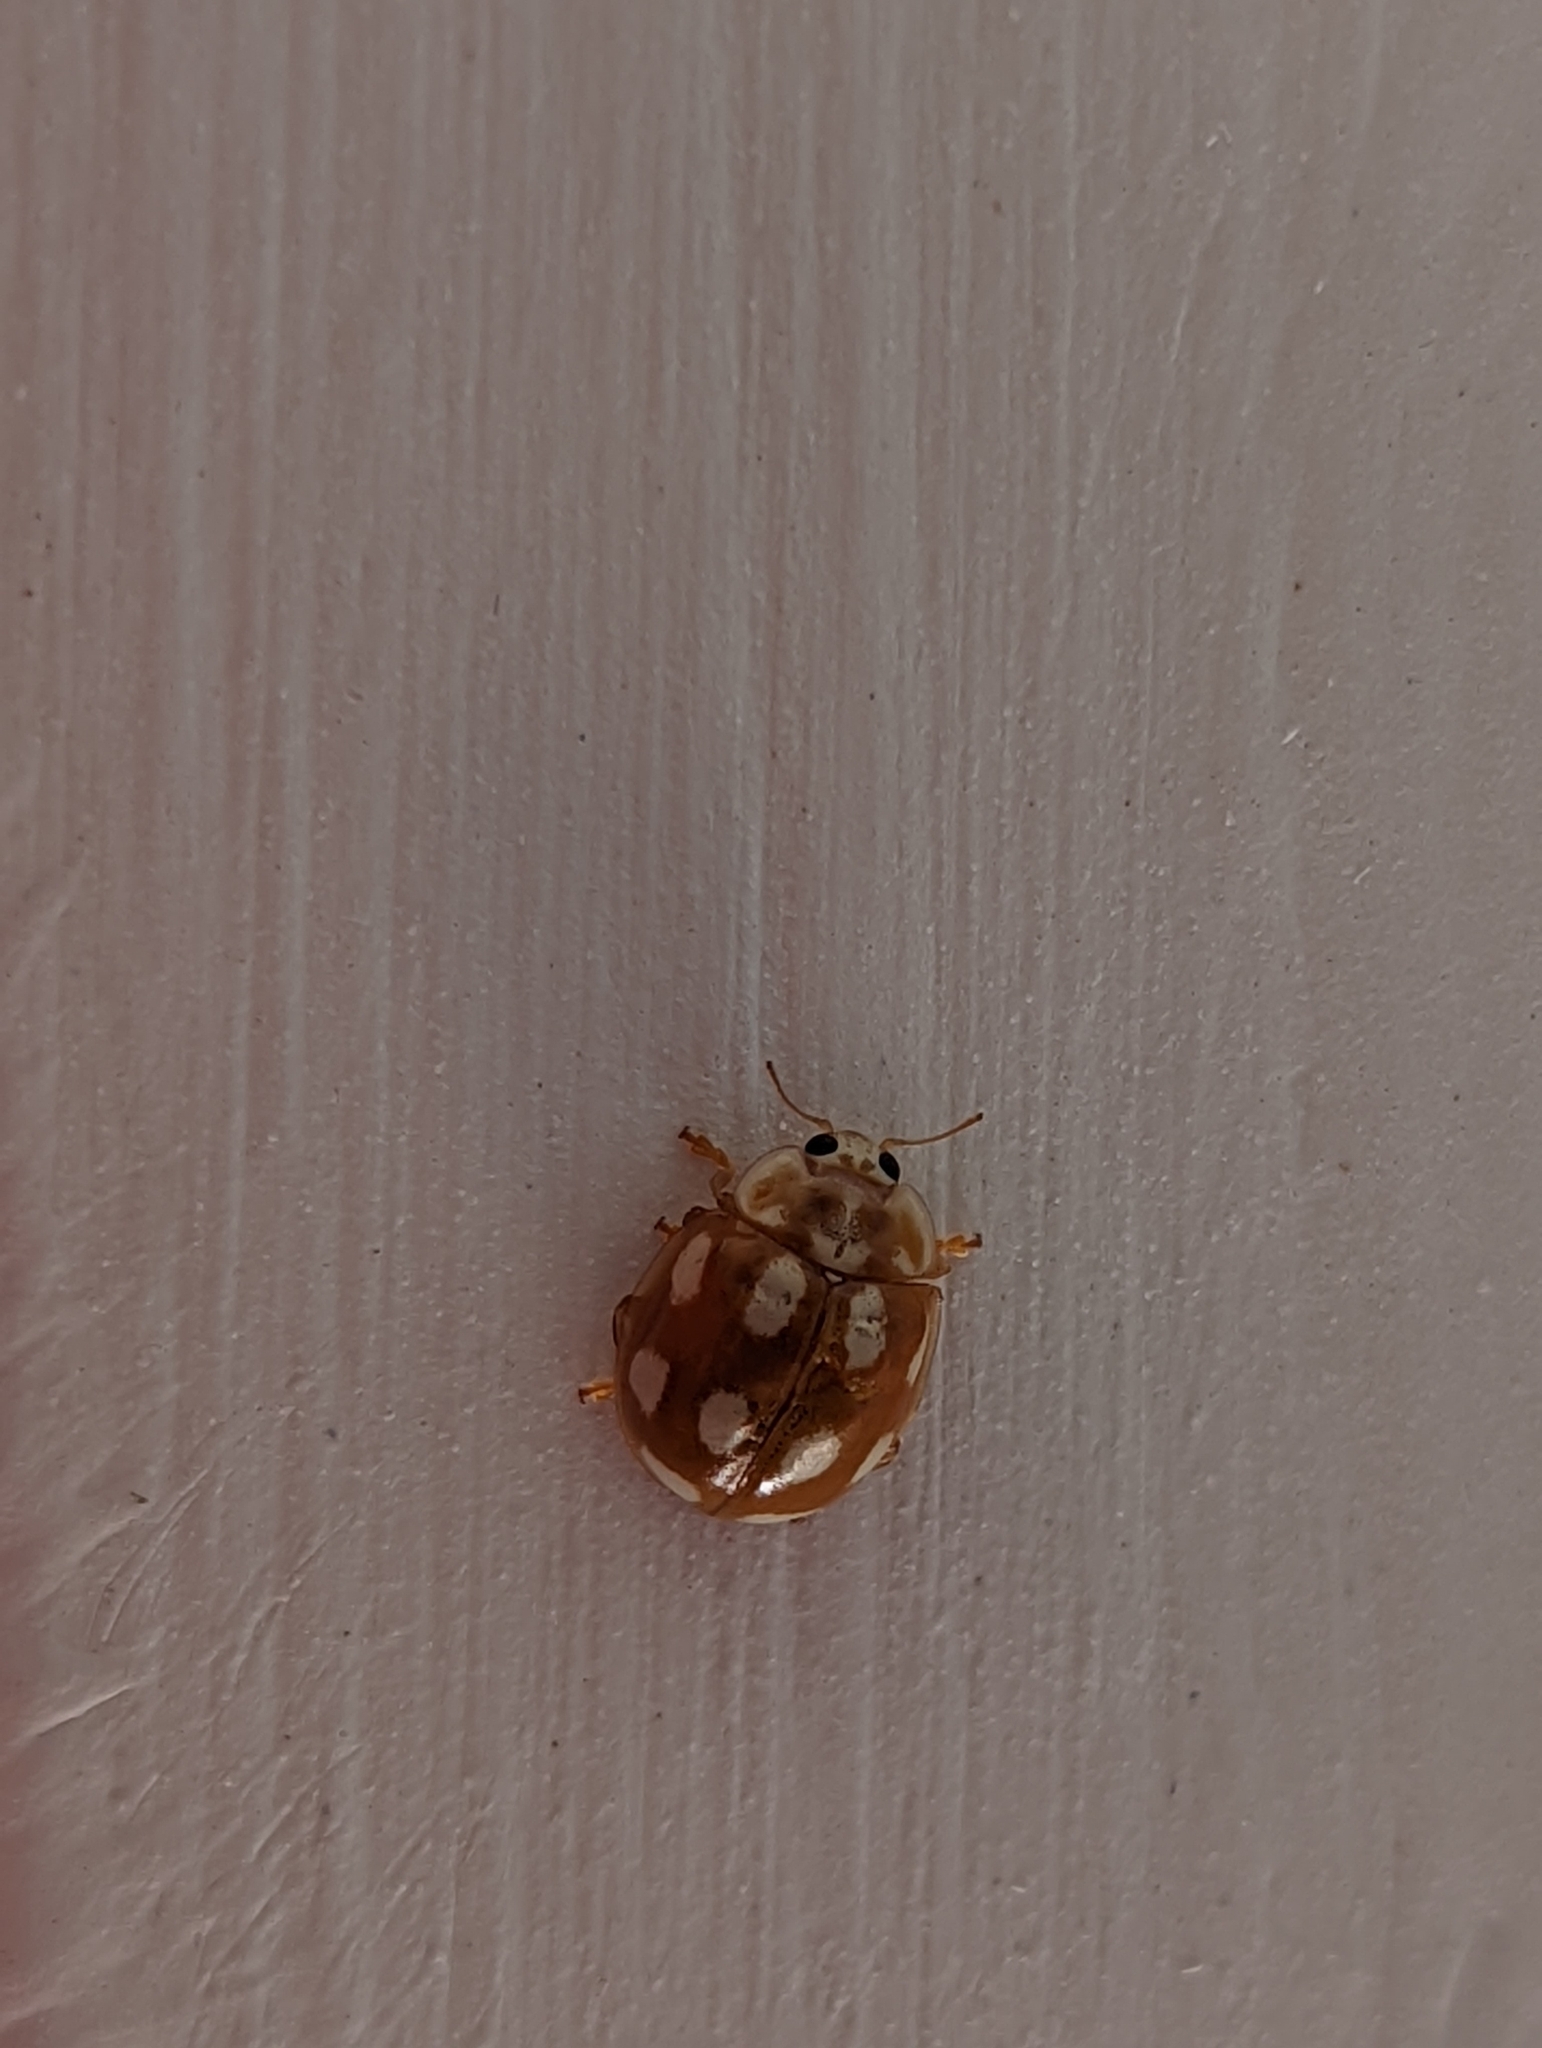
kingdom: Animalia
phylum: Arthropoda
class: Insecta
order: Coleoptera
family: Coccinellidae
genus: Calvia
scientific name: Calvia decemguttata
